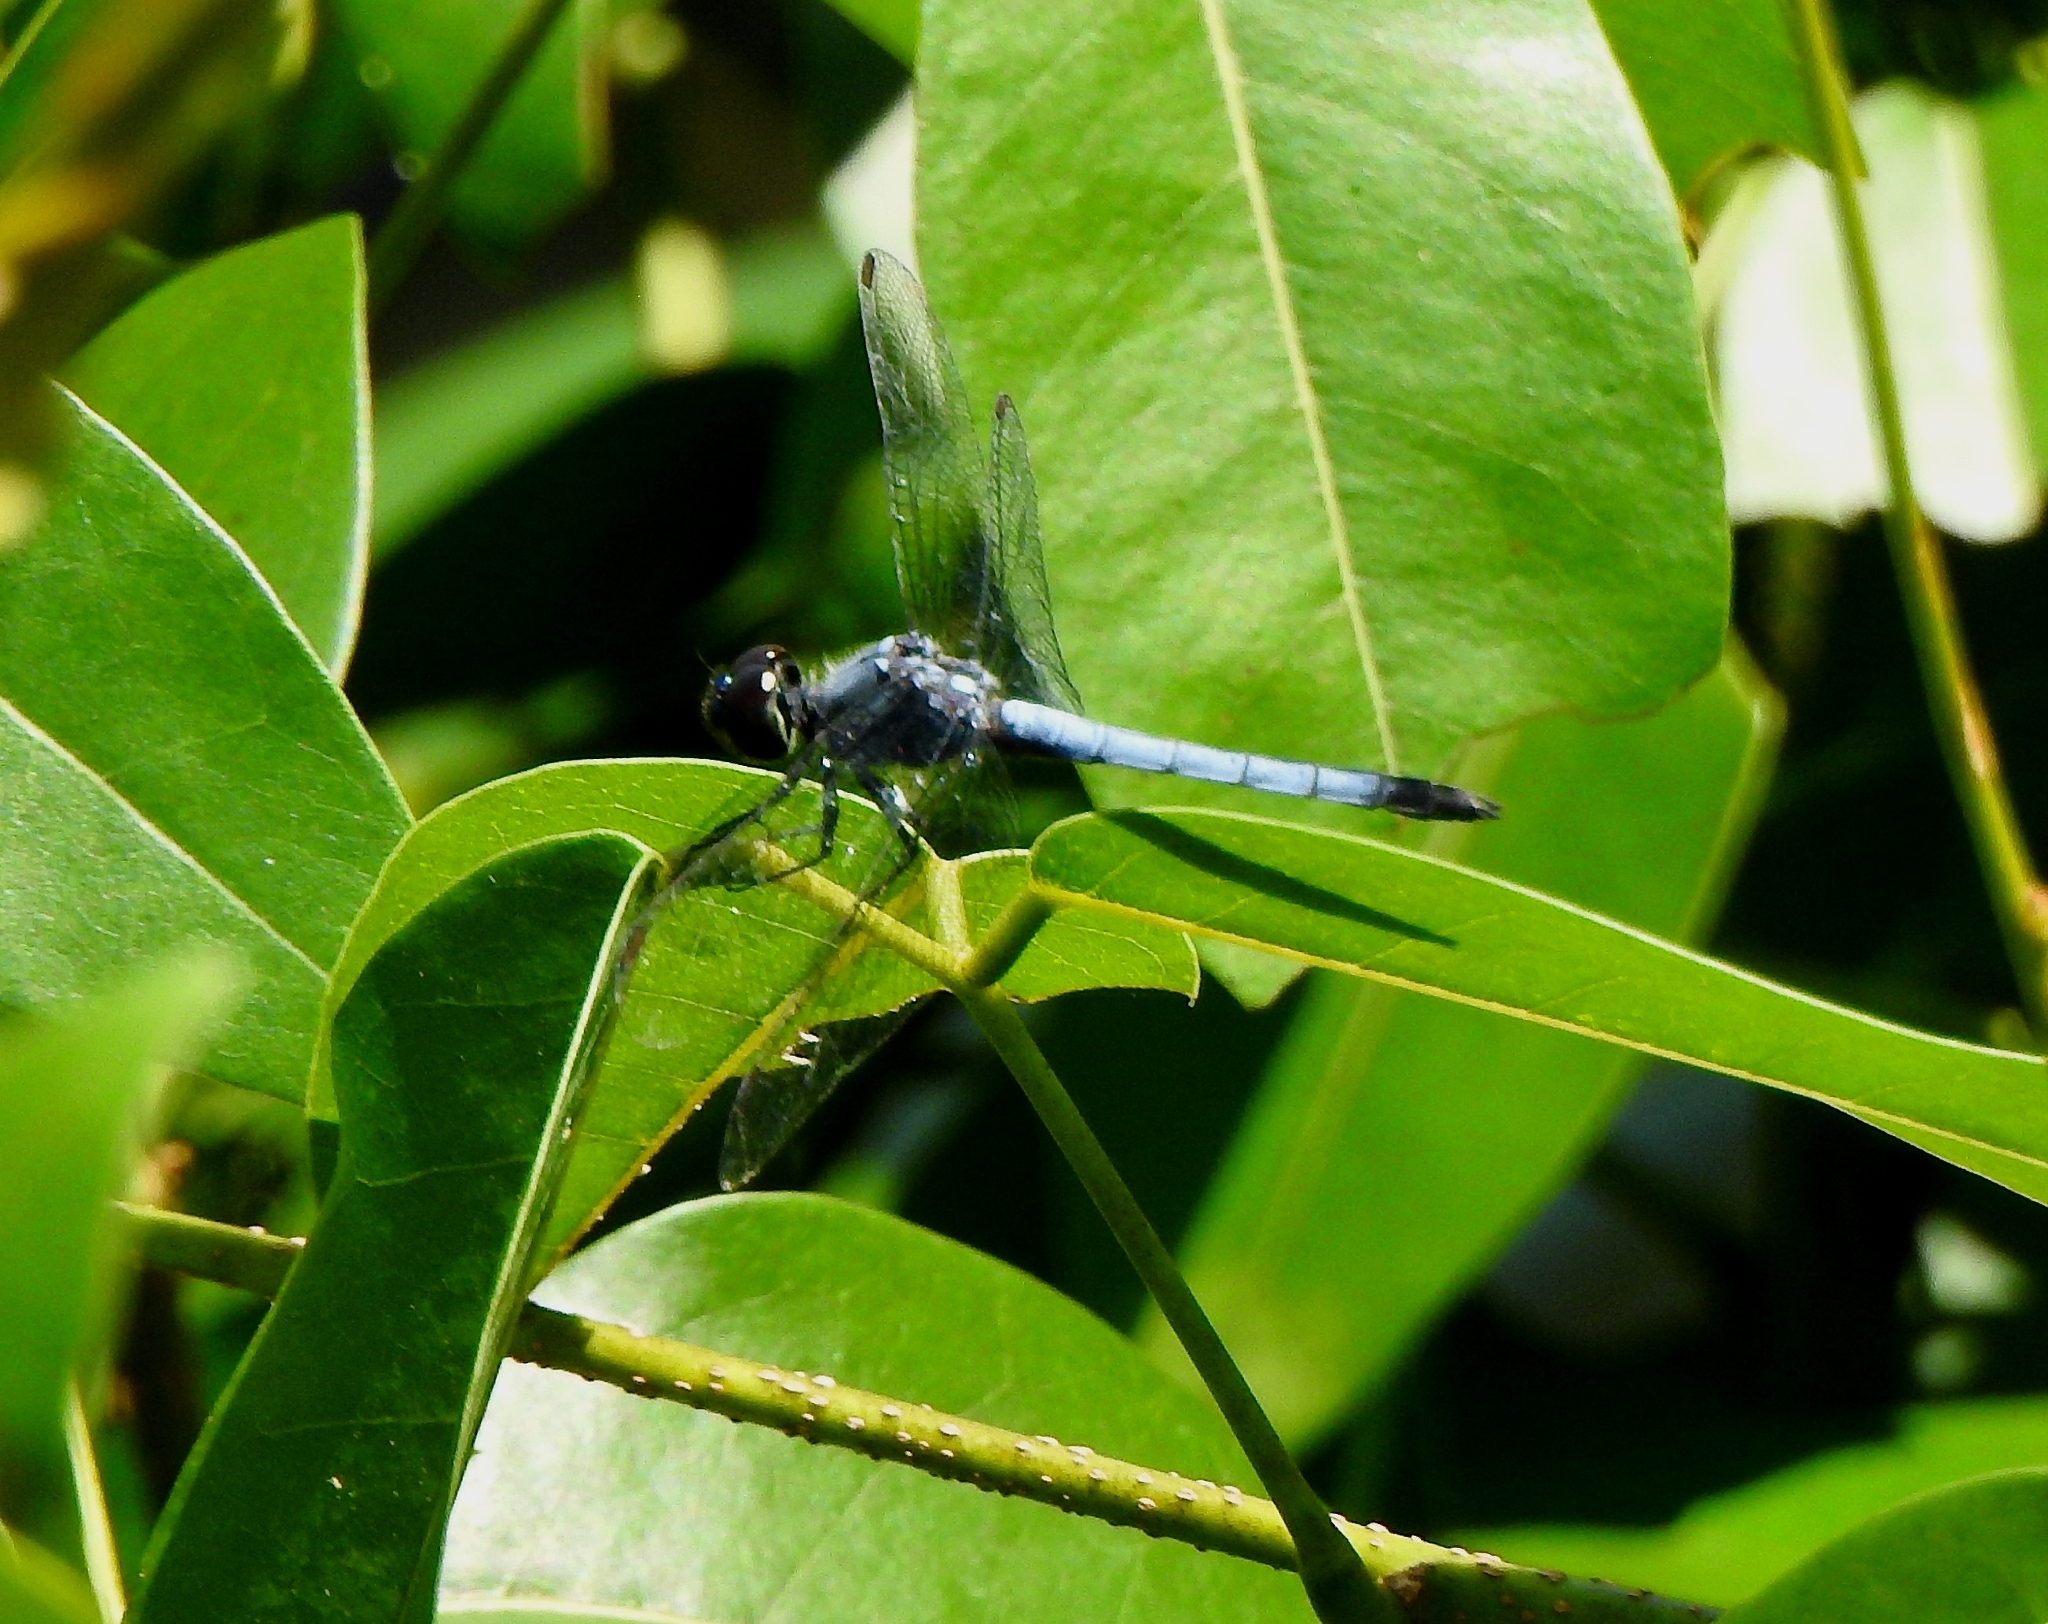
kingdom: Animalia
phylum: Arthropoda
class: Insecta
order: Odonata
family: Libellulidae
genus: Brachydiplax
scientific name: Brachydiplax sobrina
